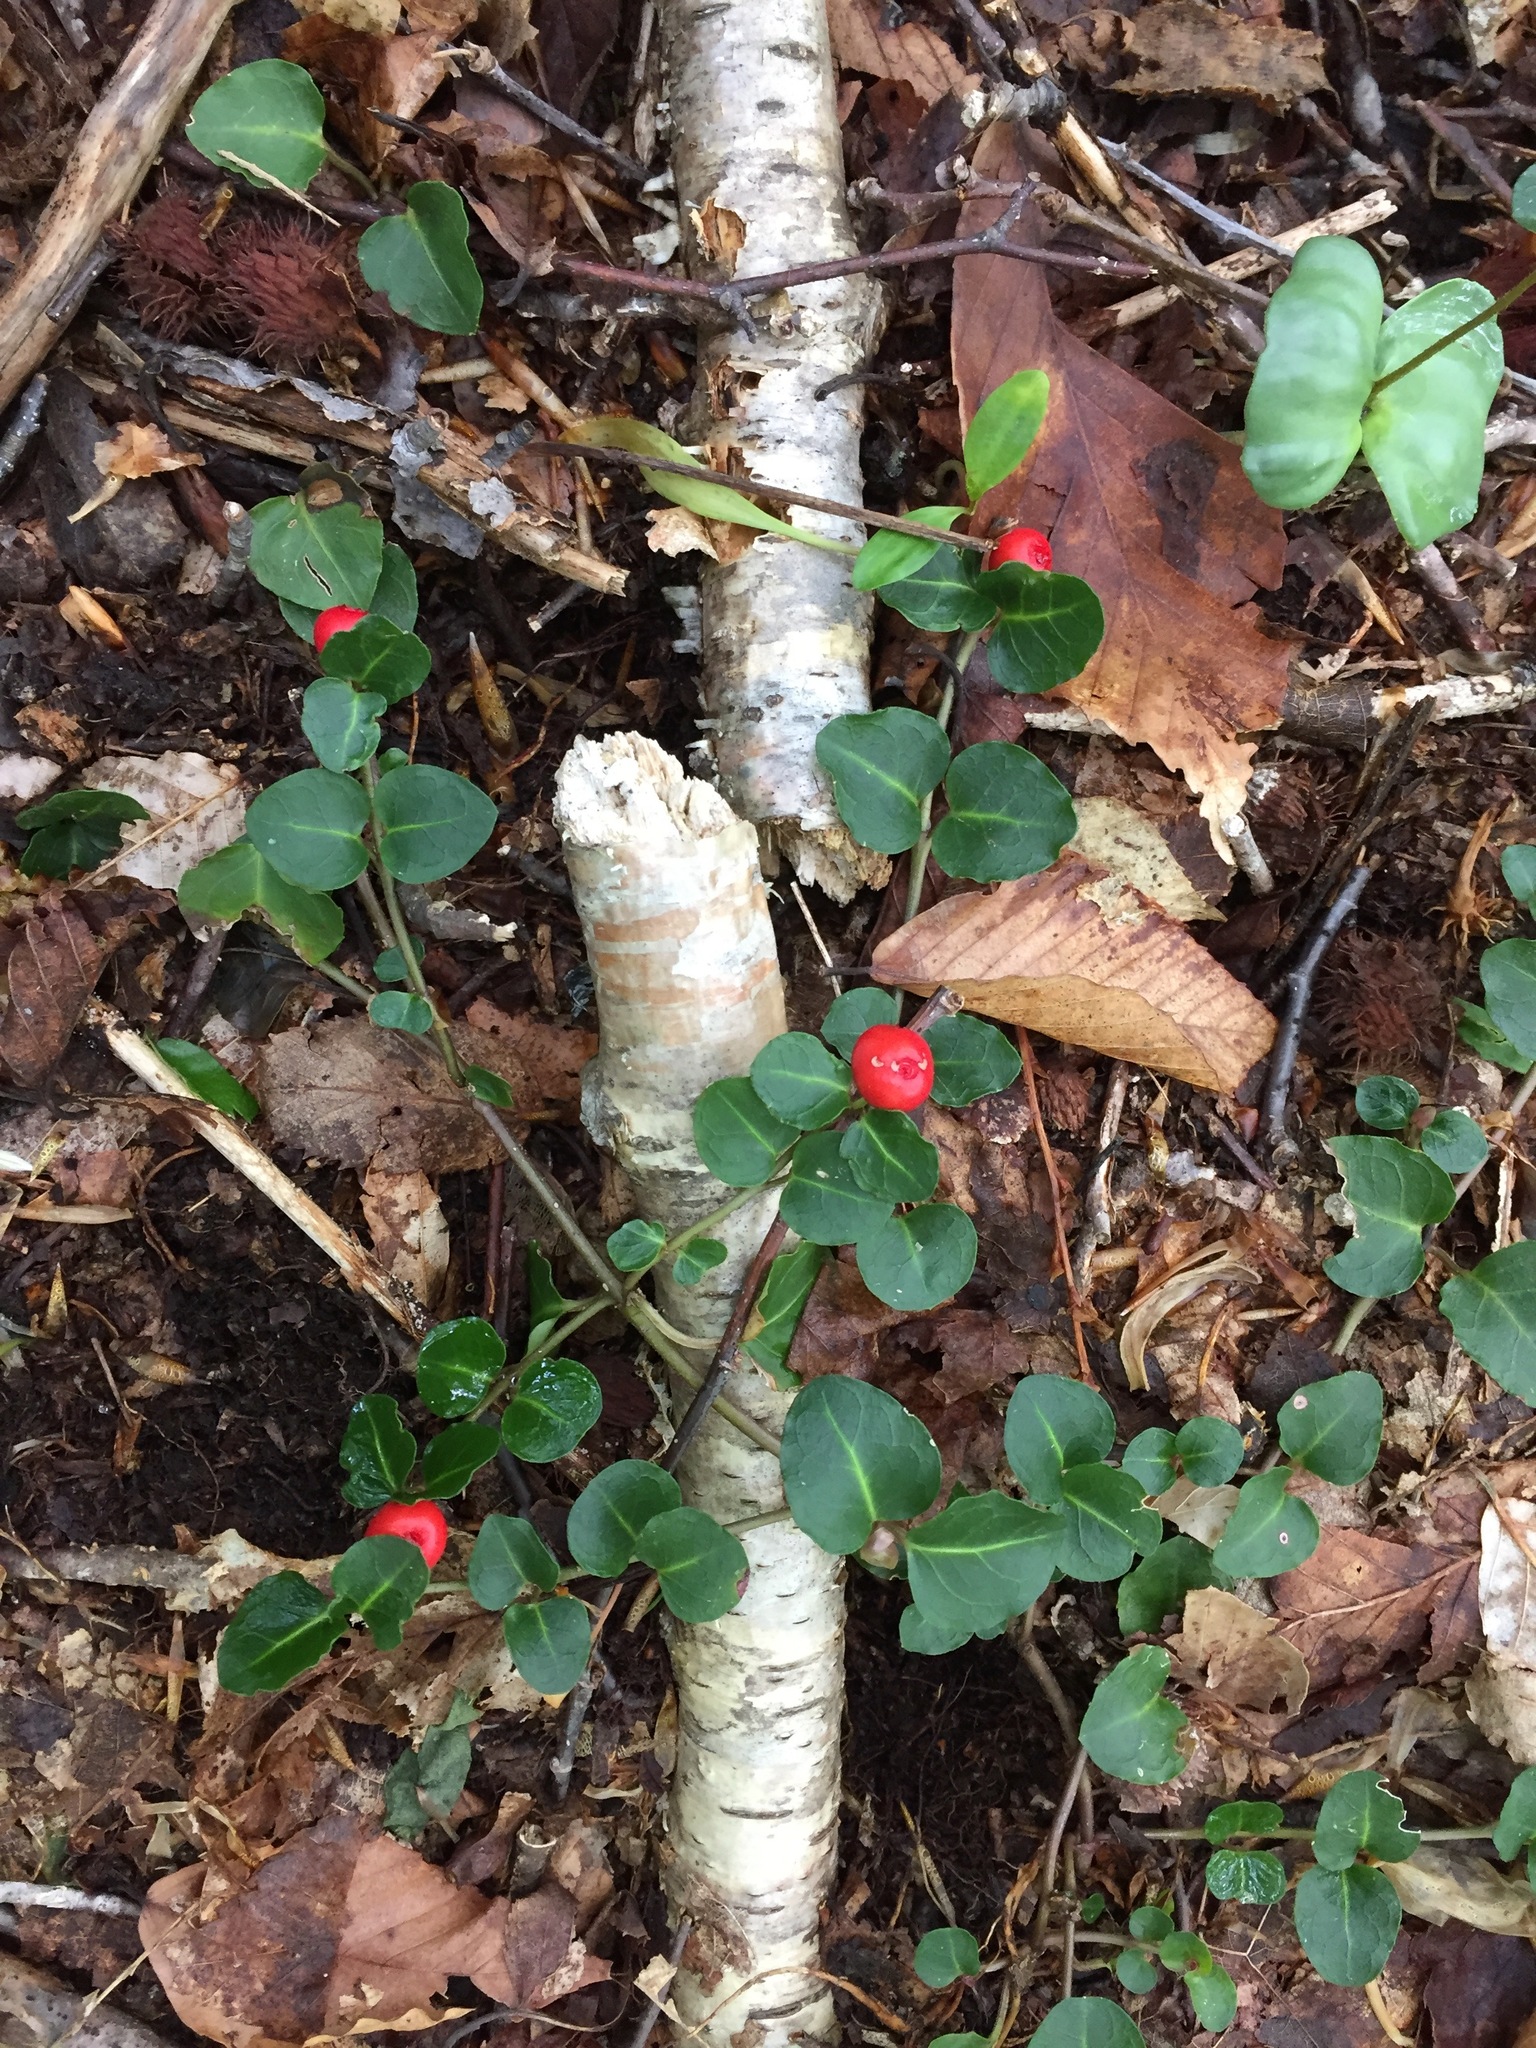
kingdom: Plantae
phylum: Tracheophyta
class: Magnoliopsida
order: Gentianales
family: Rubiaceae
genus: Mitchella
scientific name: Mitchella repens
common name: Partridge-berry
